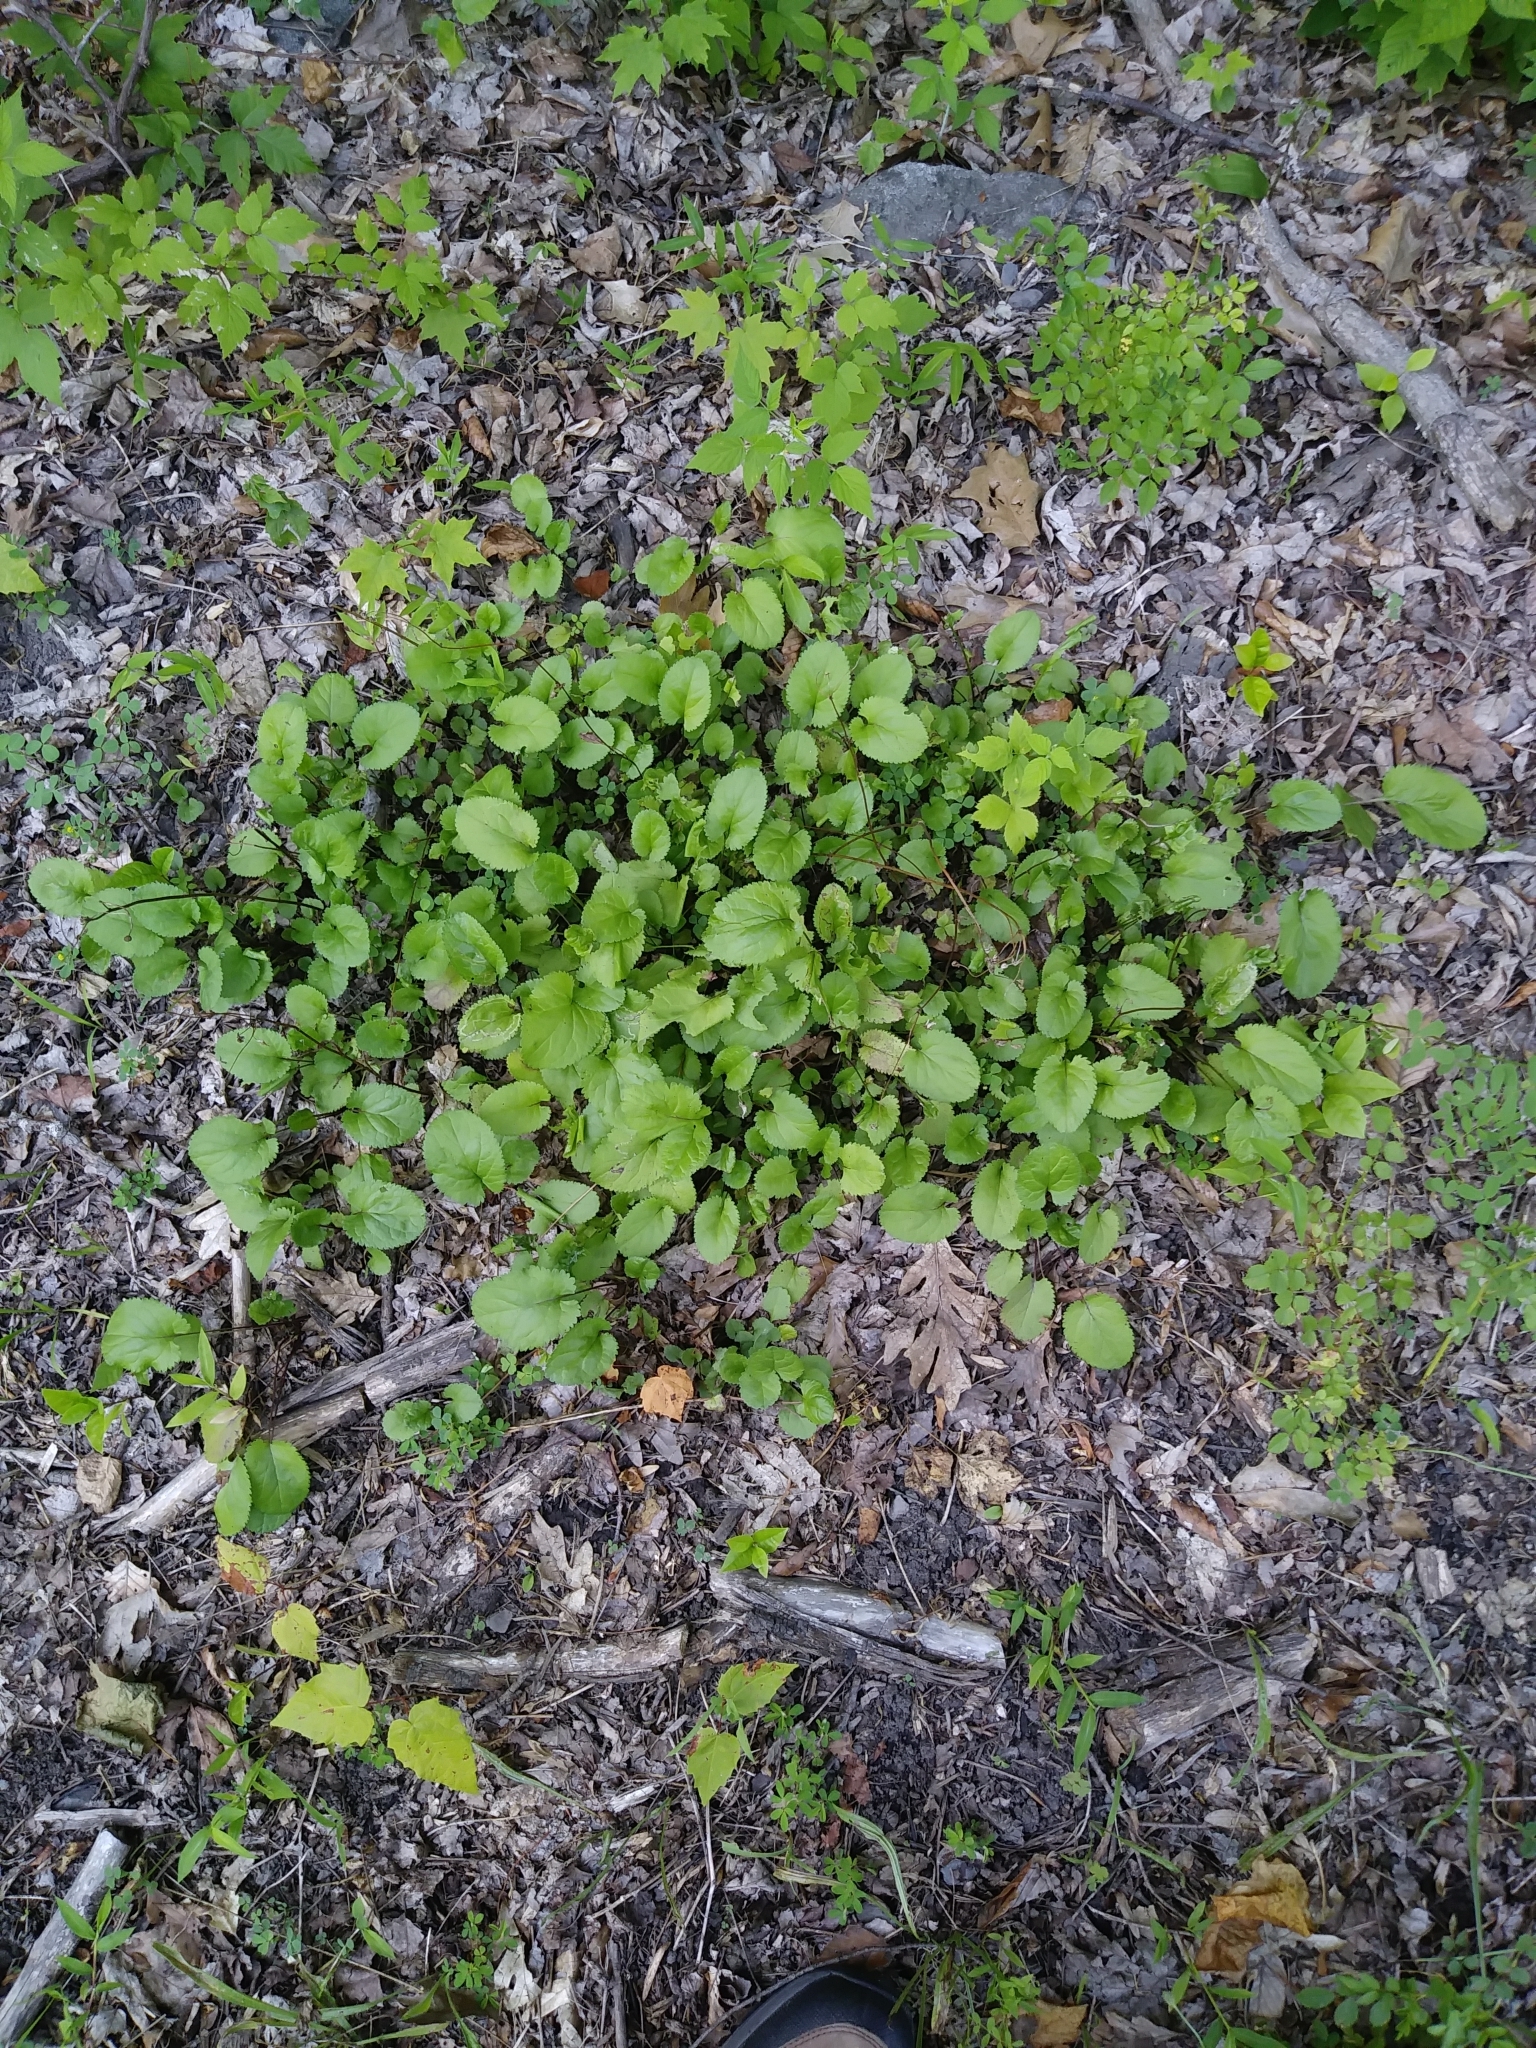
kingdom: Plantae
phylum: Tracheophyta
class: Magnoliopsida
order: Asterales
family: Asteraceae
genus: Packera
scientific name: Packera aurea
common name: Golden groundsel
